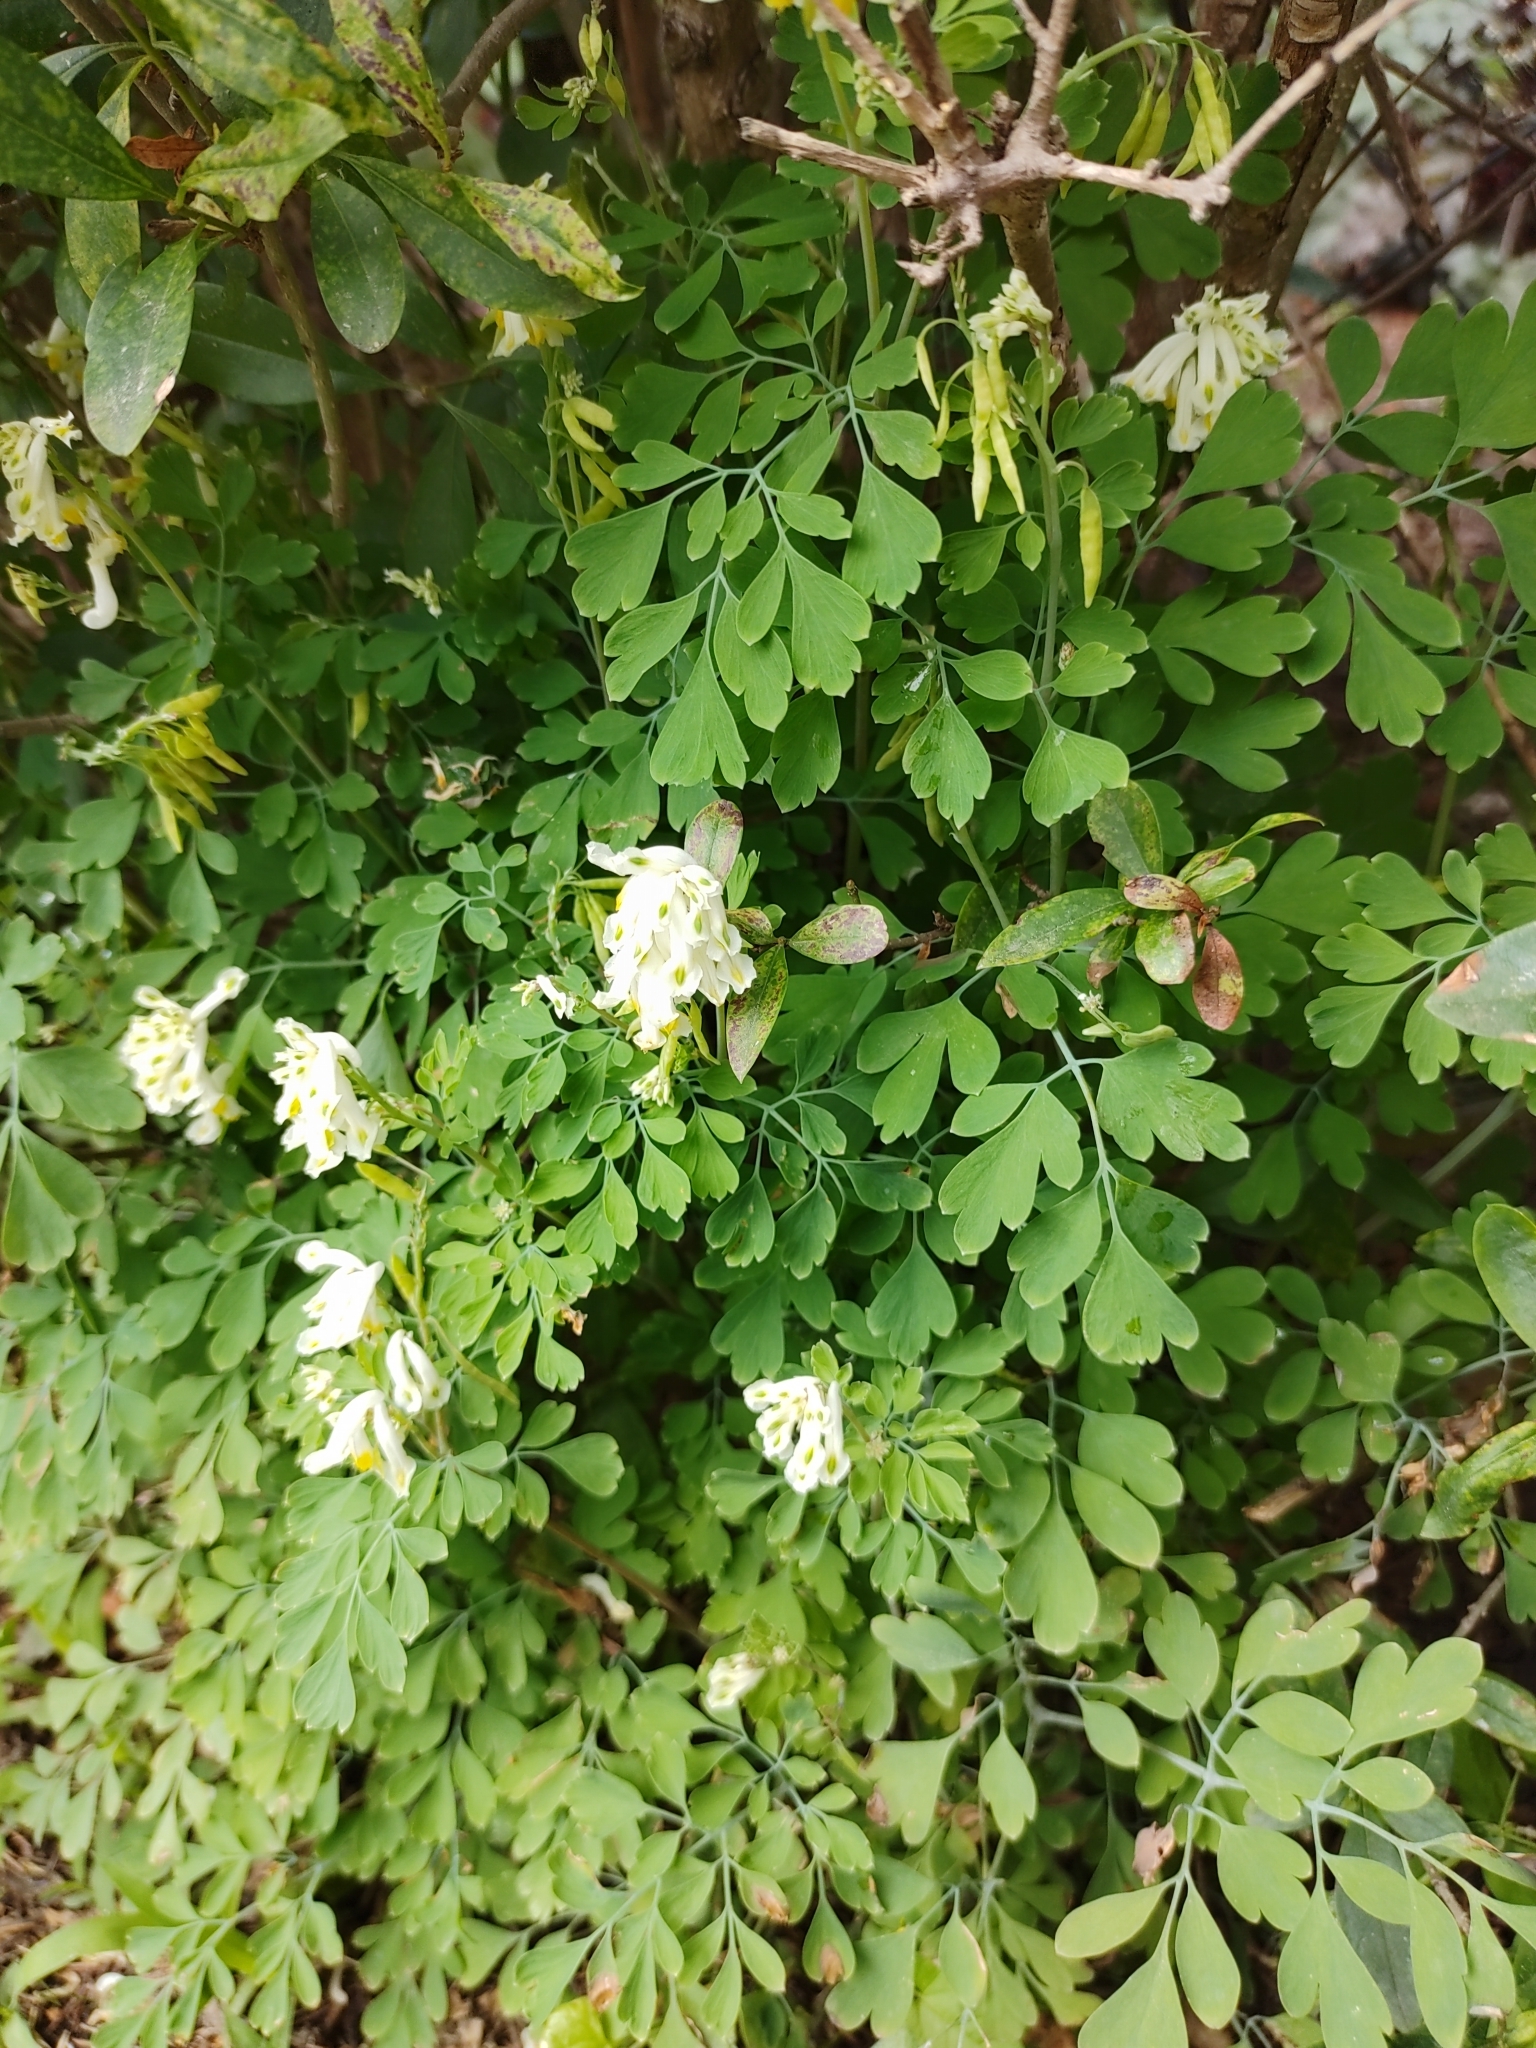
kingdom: Plantae
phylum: Tracheophyta
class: Magnoliopsida
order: Ranunculales
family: Papaveraceae
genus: Pseudofumaria
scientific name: Pseudofumaria alba
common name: Pale corydalis
